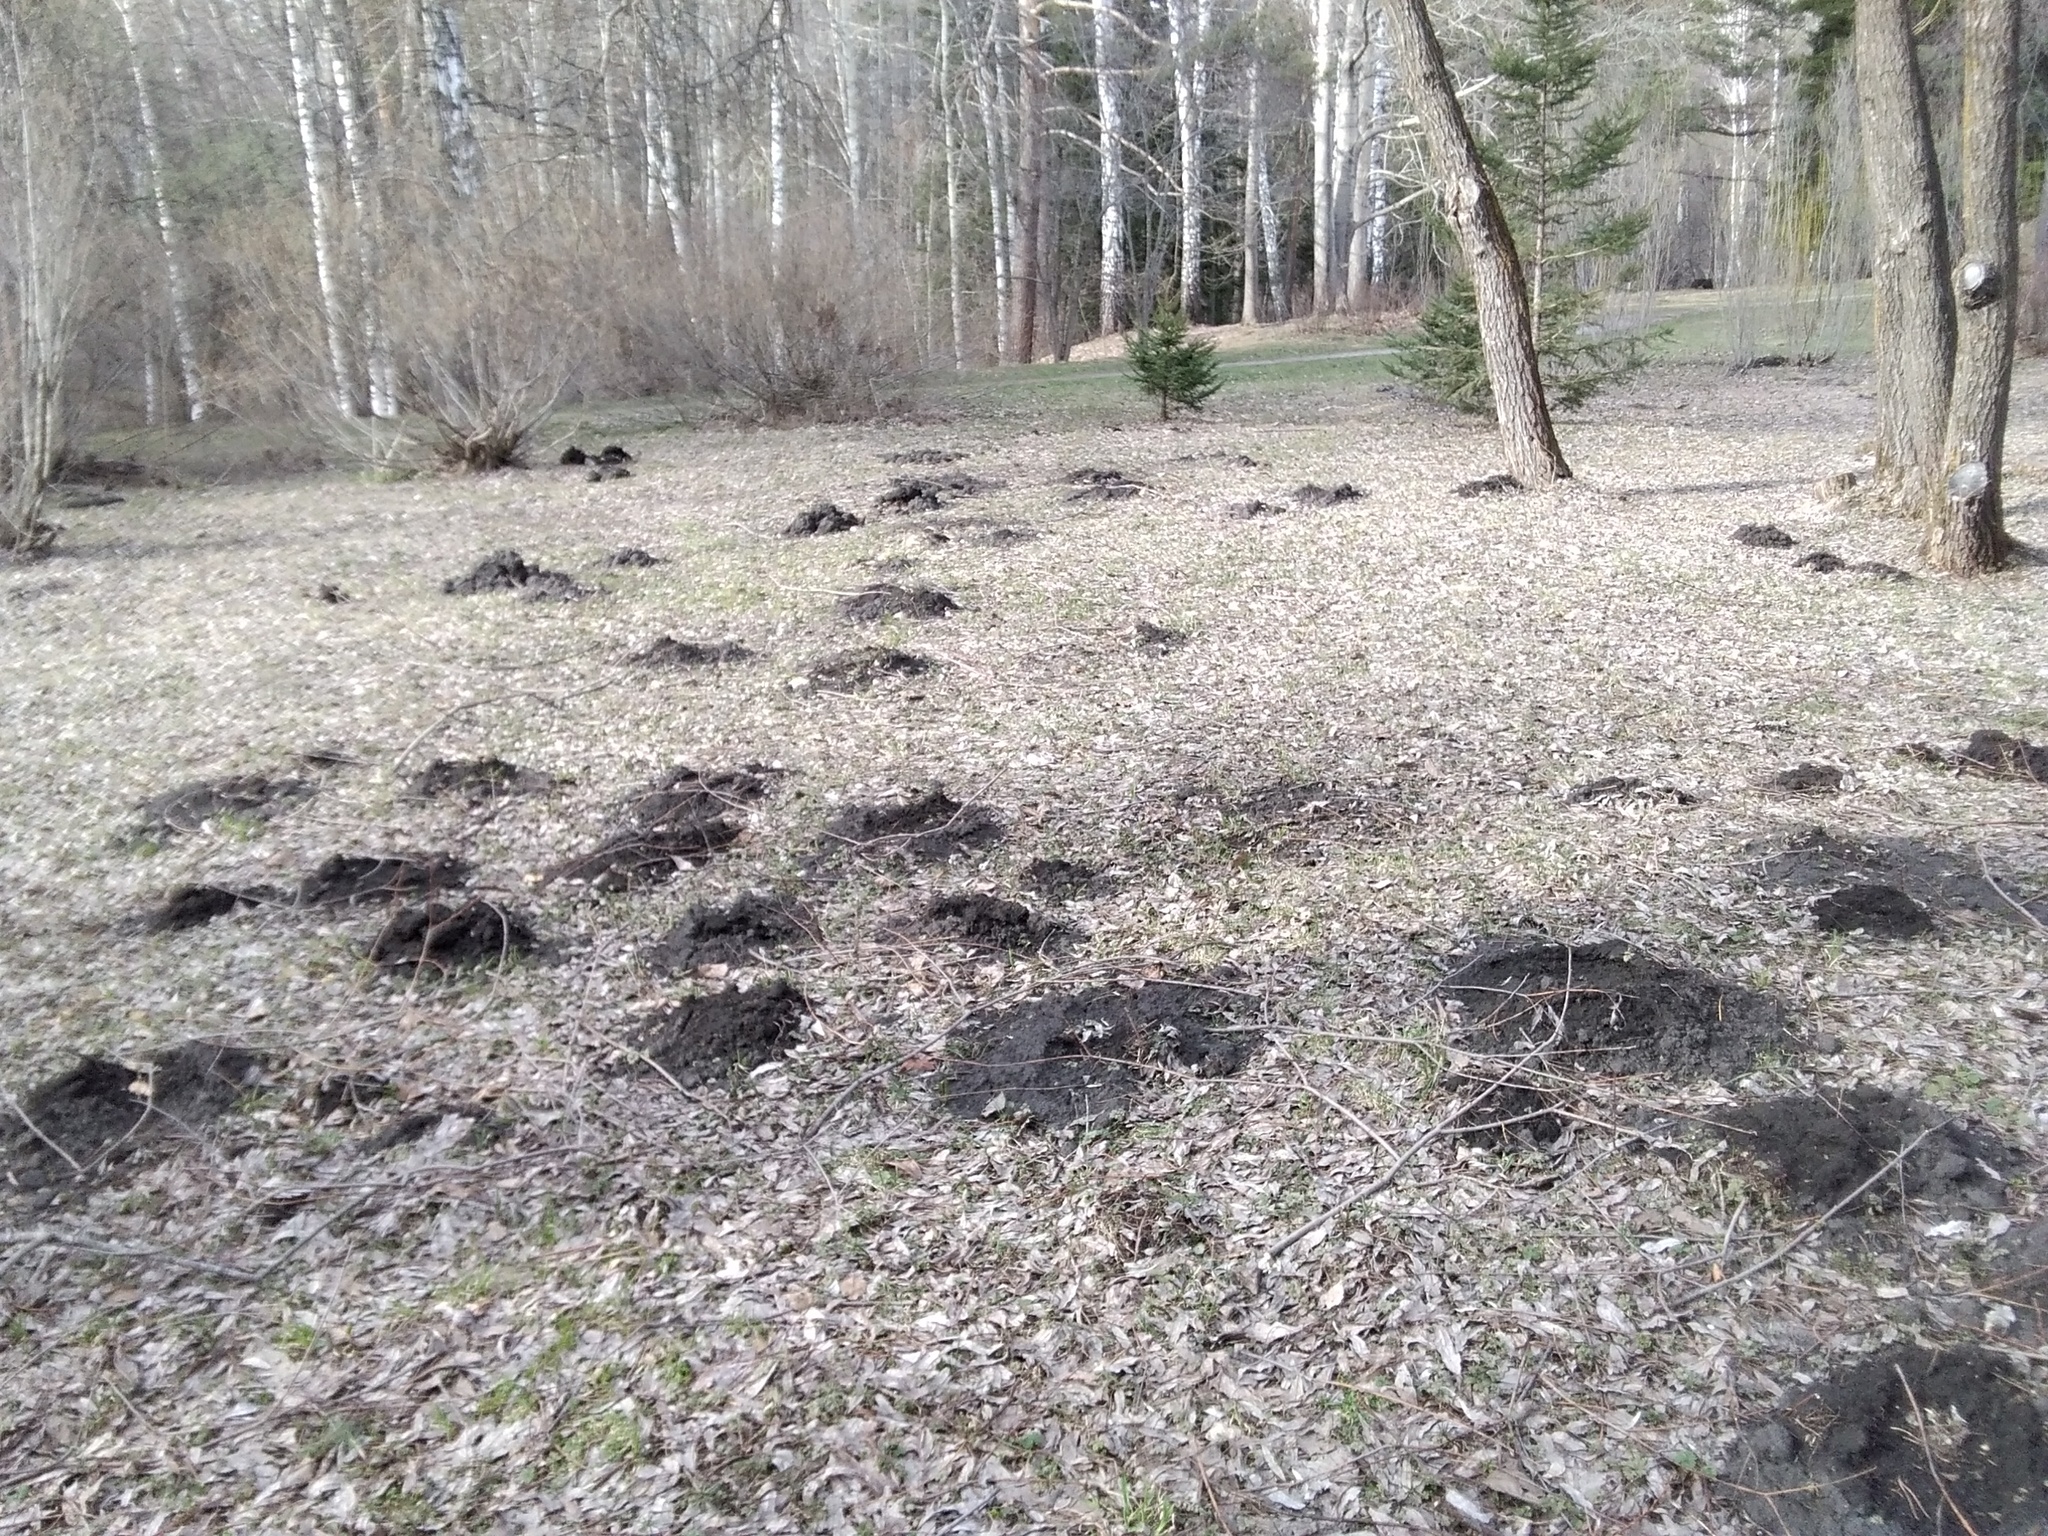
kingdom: Animalia
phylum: Chordata
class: Mammalia
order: Soricomorpha
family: Talpidae
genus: Talpa
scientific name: Talpa altaica
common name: Altai mole
